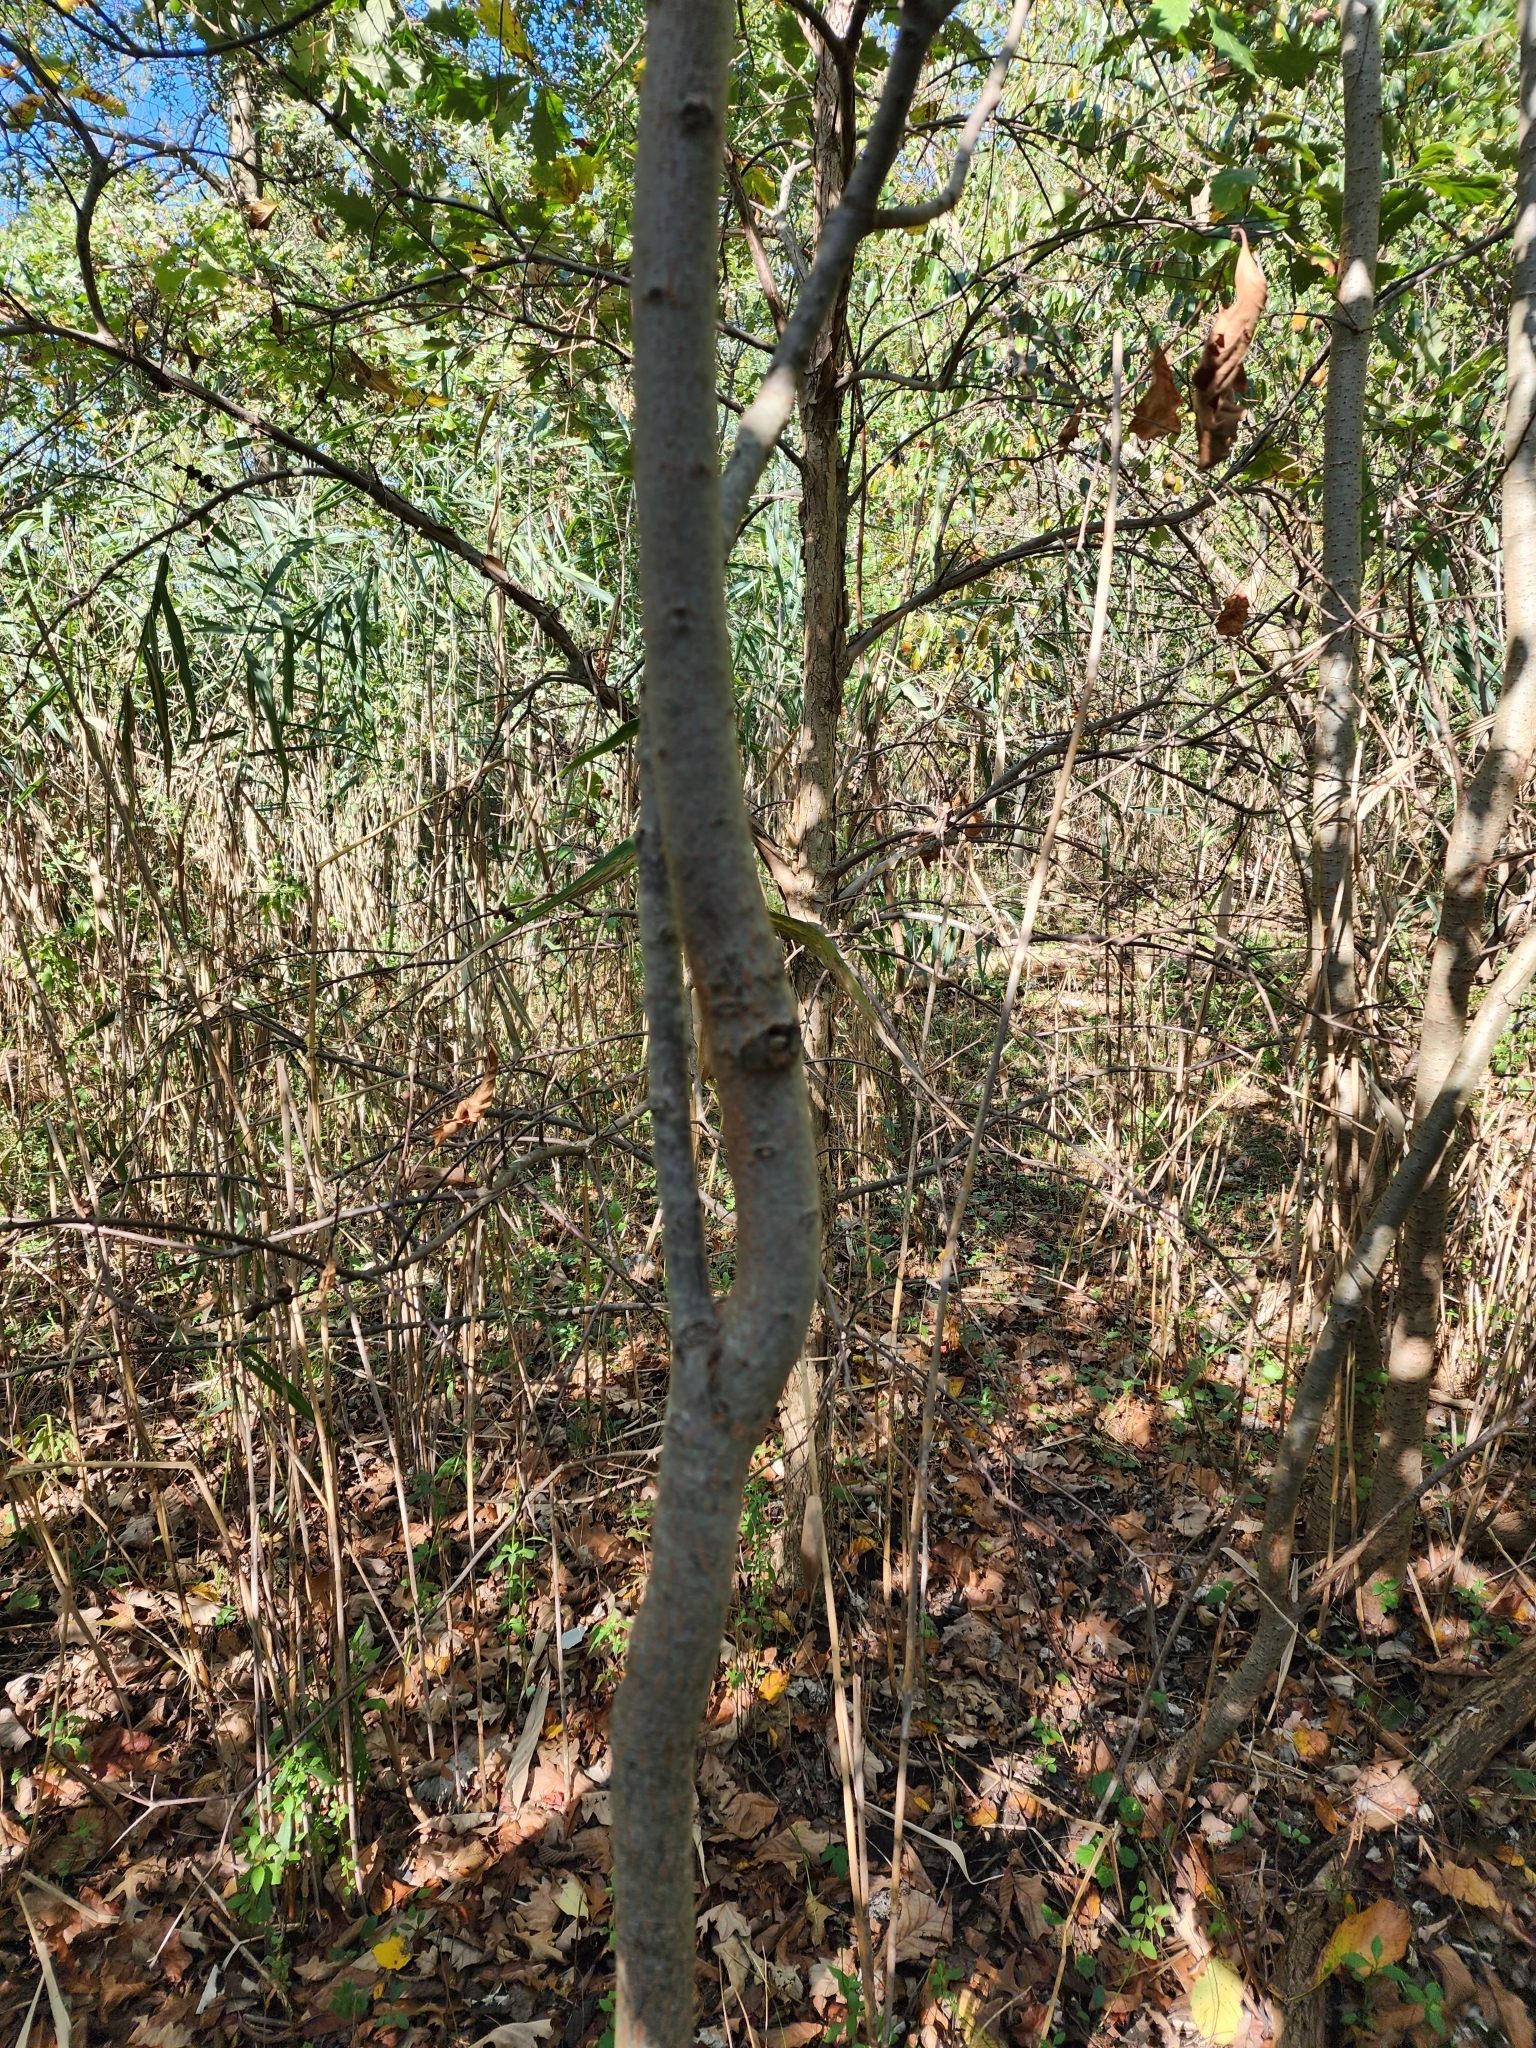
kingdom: Plantae
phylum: Tracheophyta
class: Magnoliopsida
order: Ericales
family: Ebenaceae
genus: Diospyros
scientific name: Diospyros virginiana
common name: Persimmon
